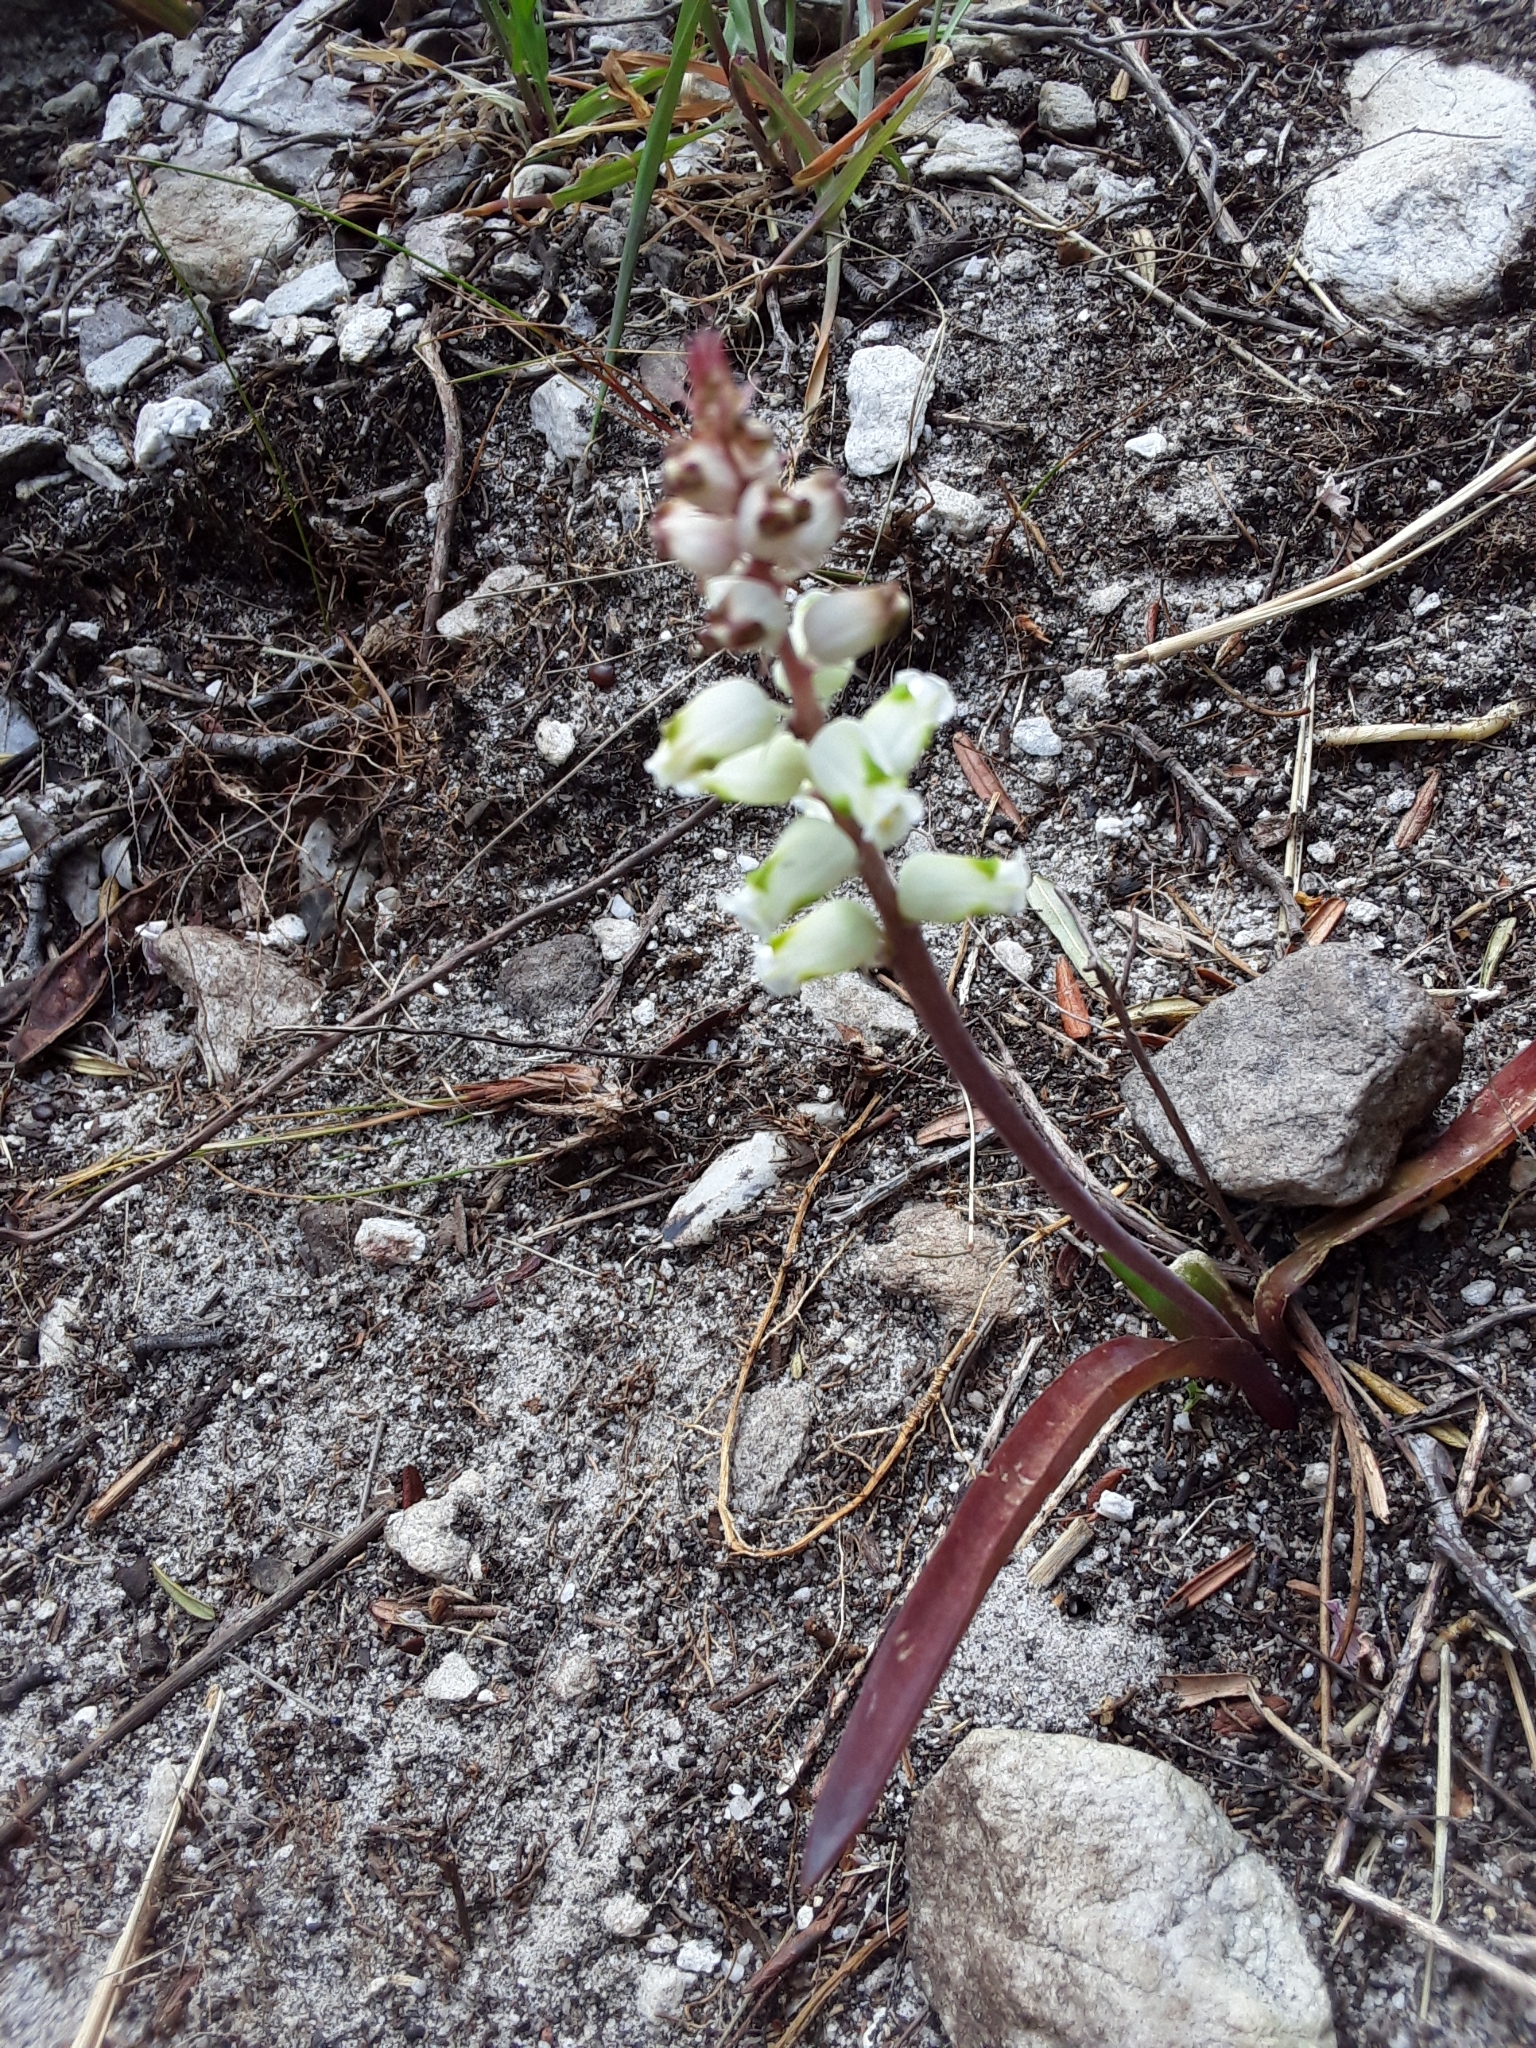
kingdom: Plantae
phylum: Tracheophyta
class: Liliopsida
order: Asparagales
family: Asparagaceae
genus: Lachenalia
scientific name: Lachenalia peersii
